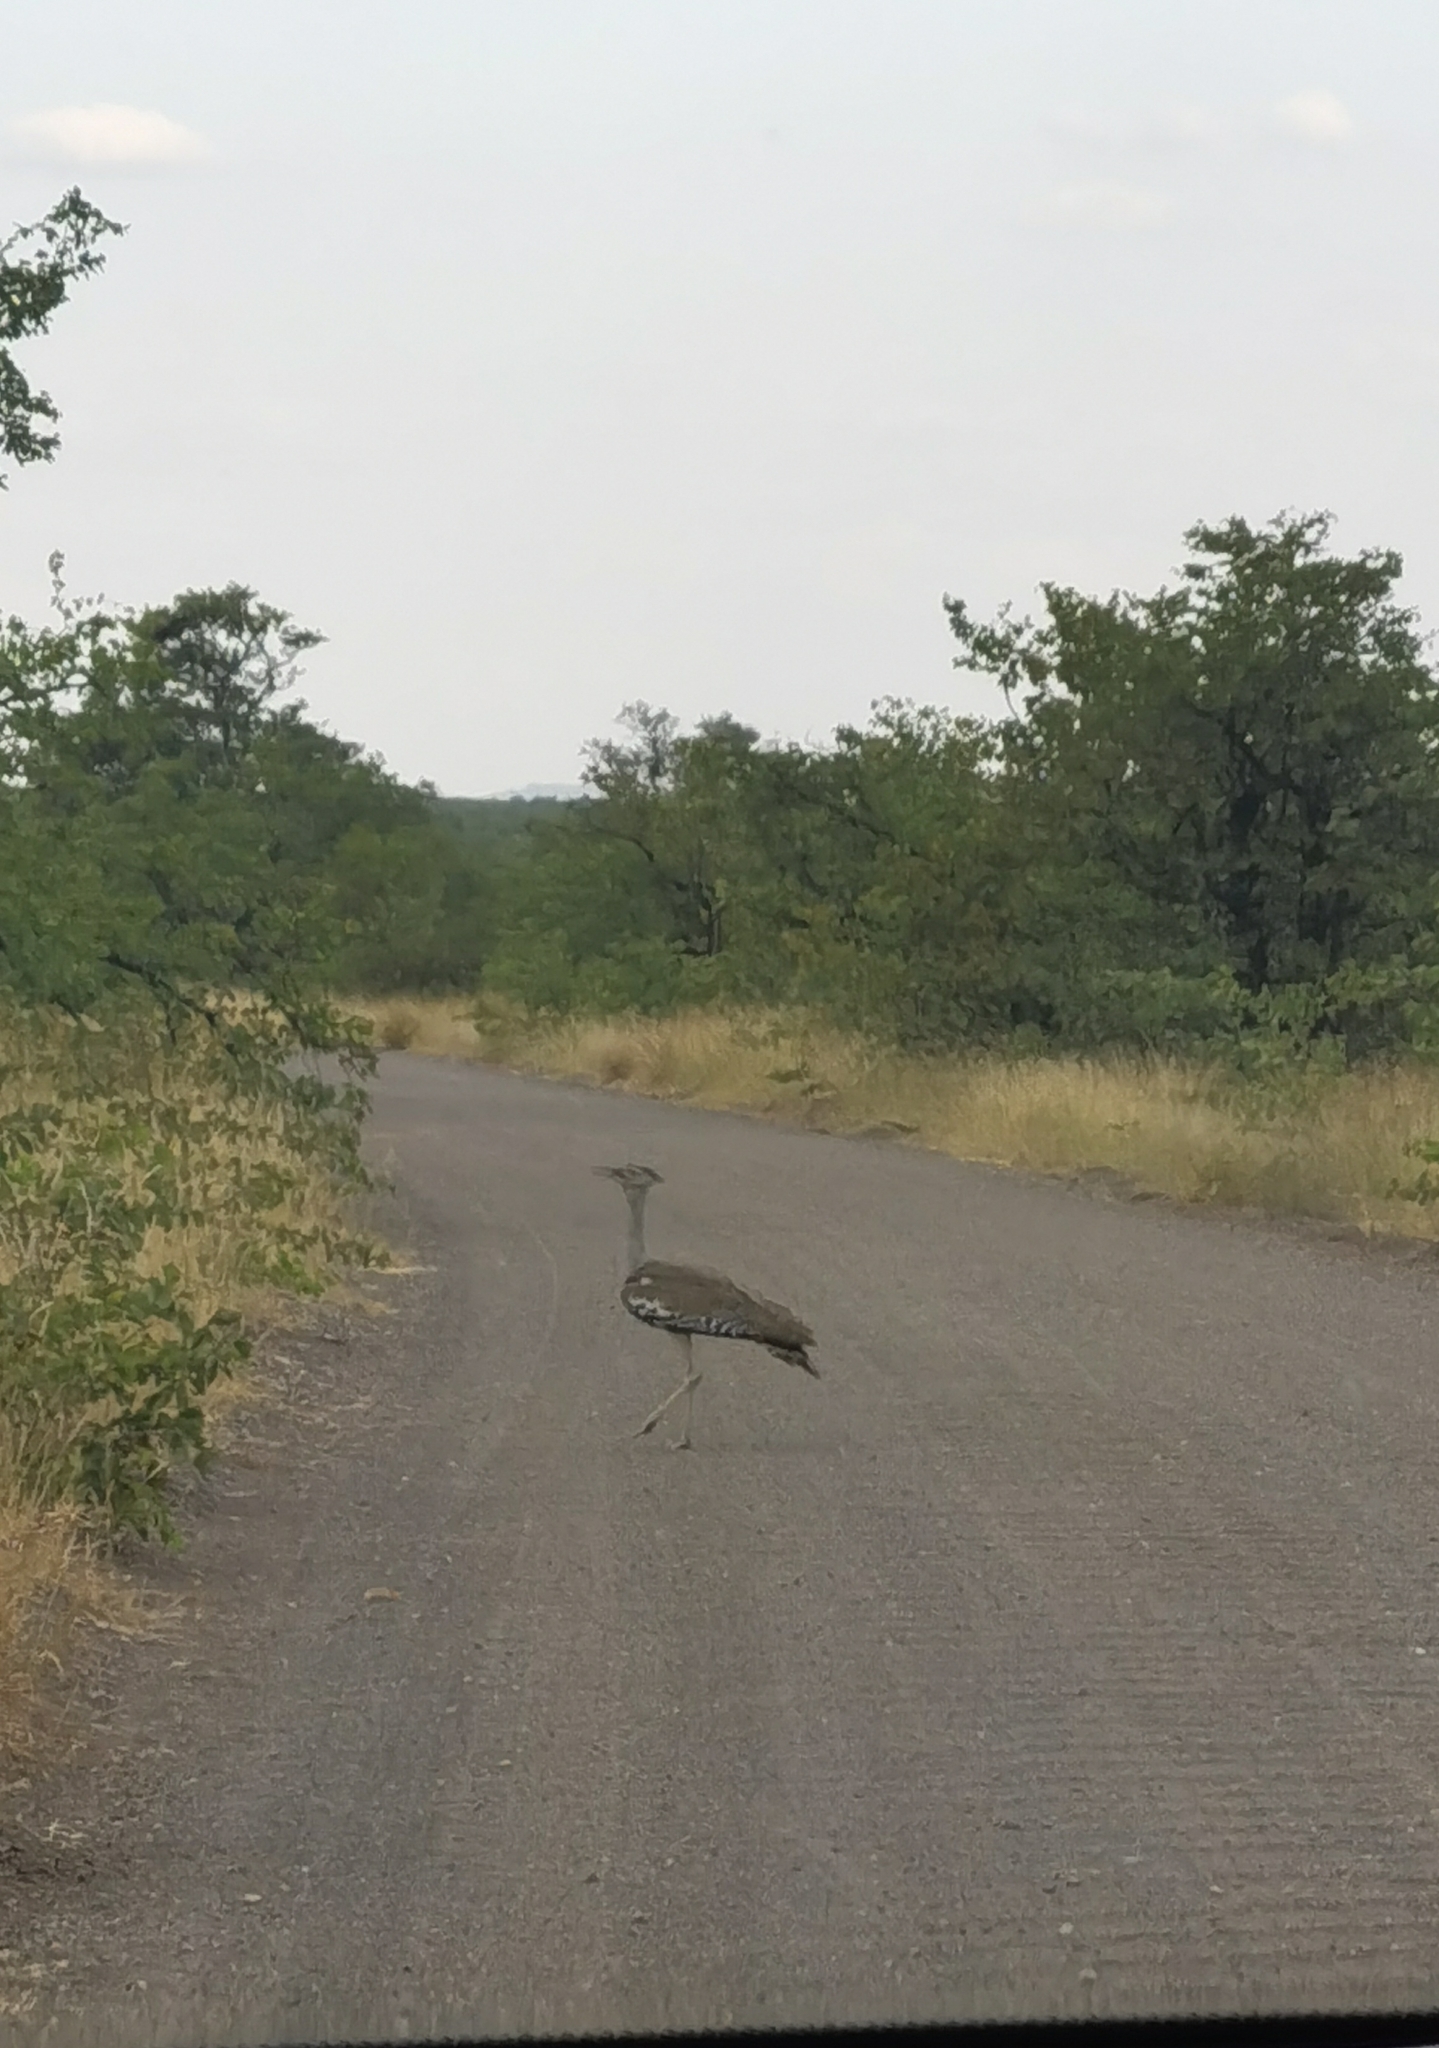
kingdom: Animalia
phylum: Chordata
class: Aves
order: Otidiformes
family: Otididae
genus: Ardeotis
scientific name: Ardeotis kori
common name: Kori bustard
